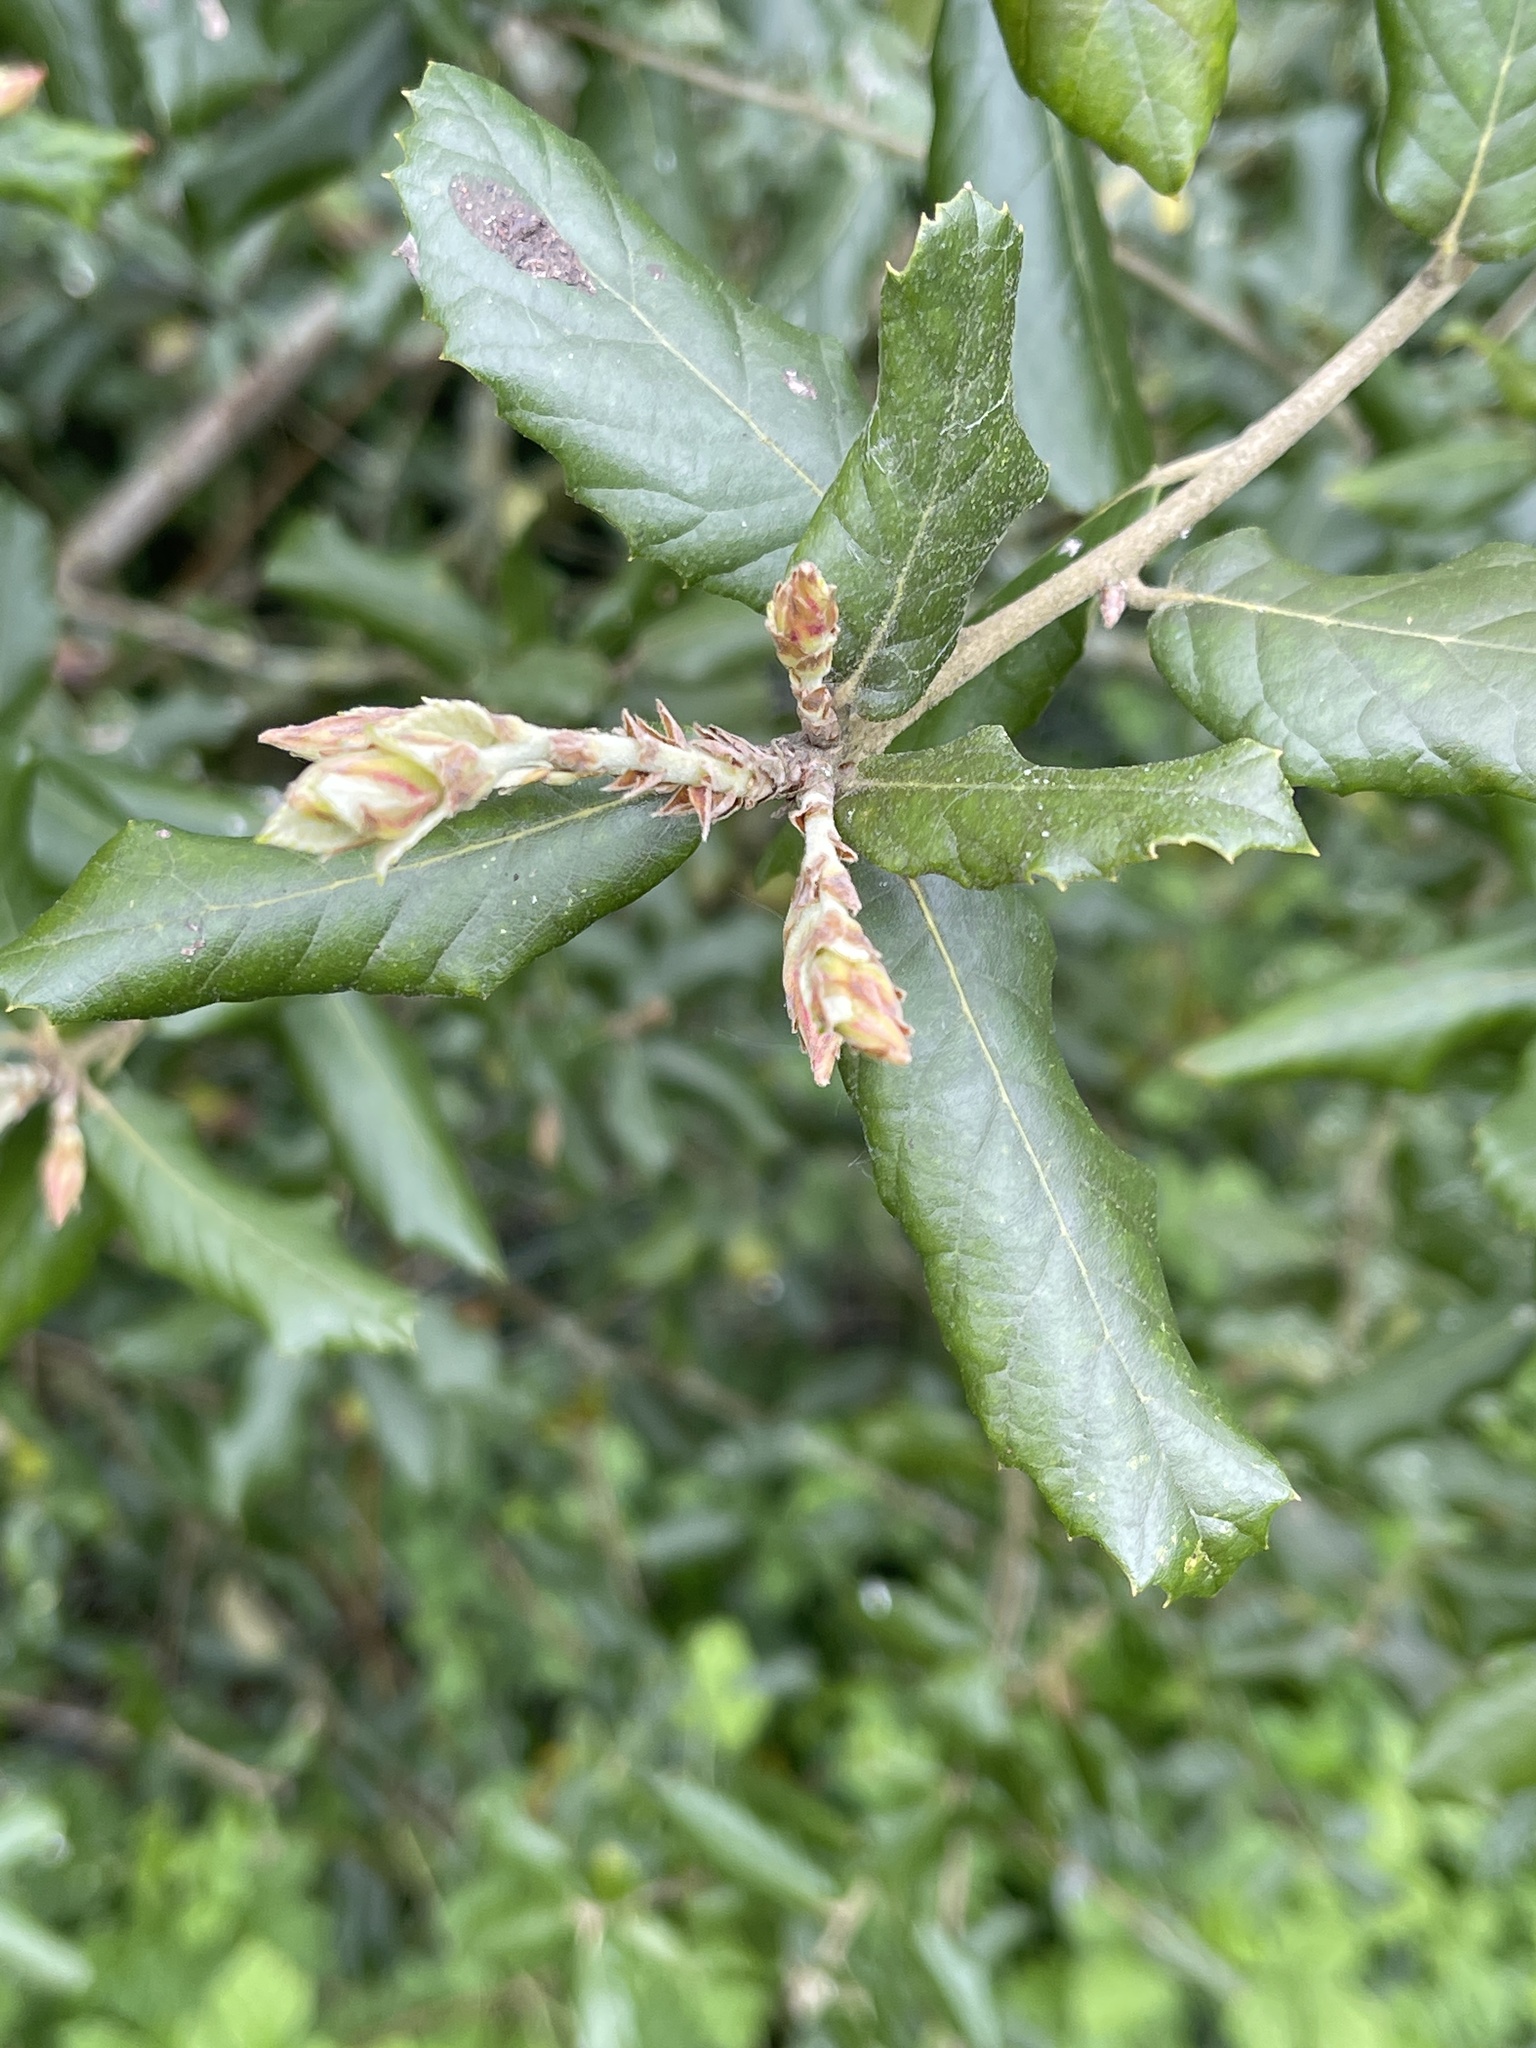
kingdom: Plantae
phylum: Tracheophyta
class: Magnoliopsida
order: Fagales
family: Fagaceae
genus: Quercus
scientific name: Quercus ilex
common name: Evergreen oak
